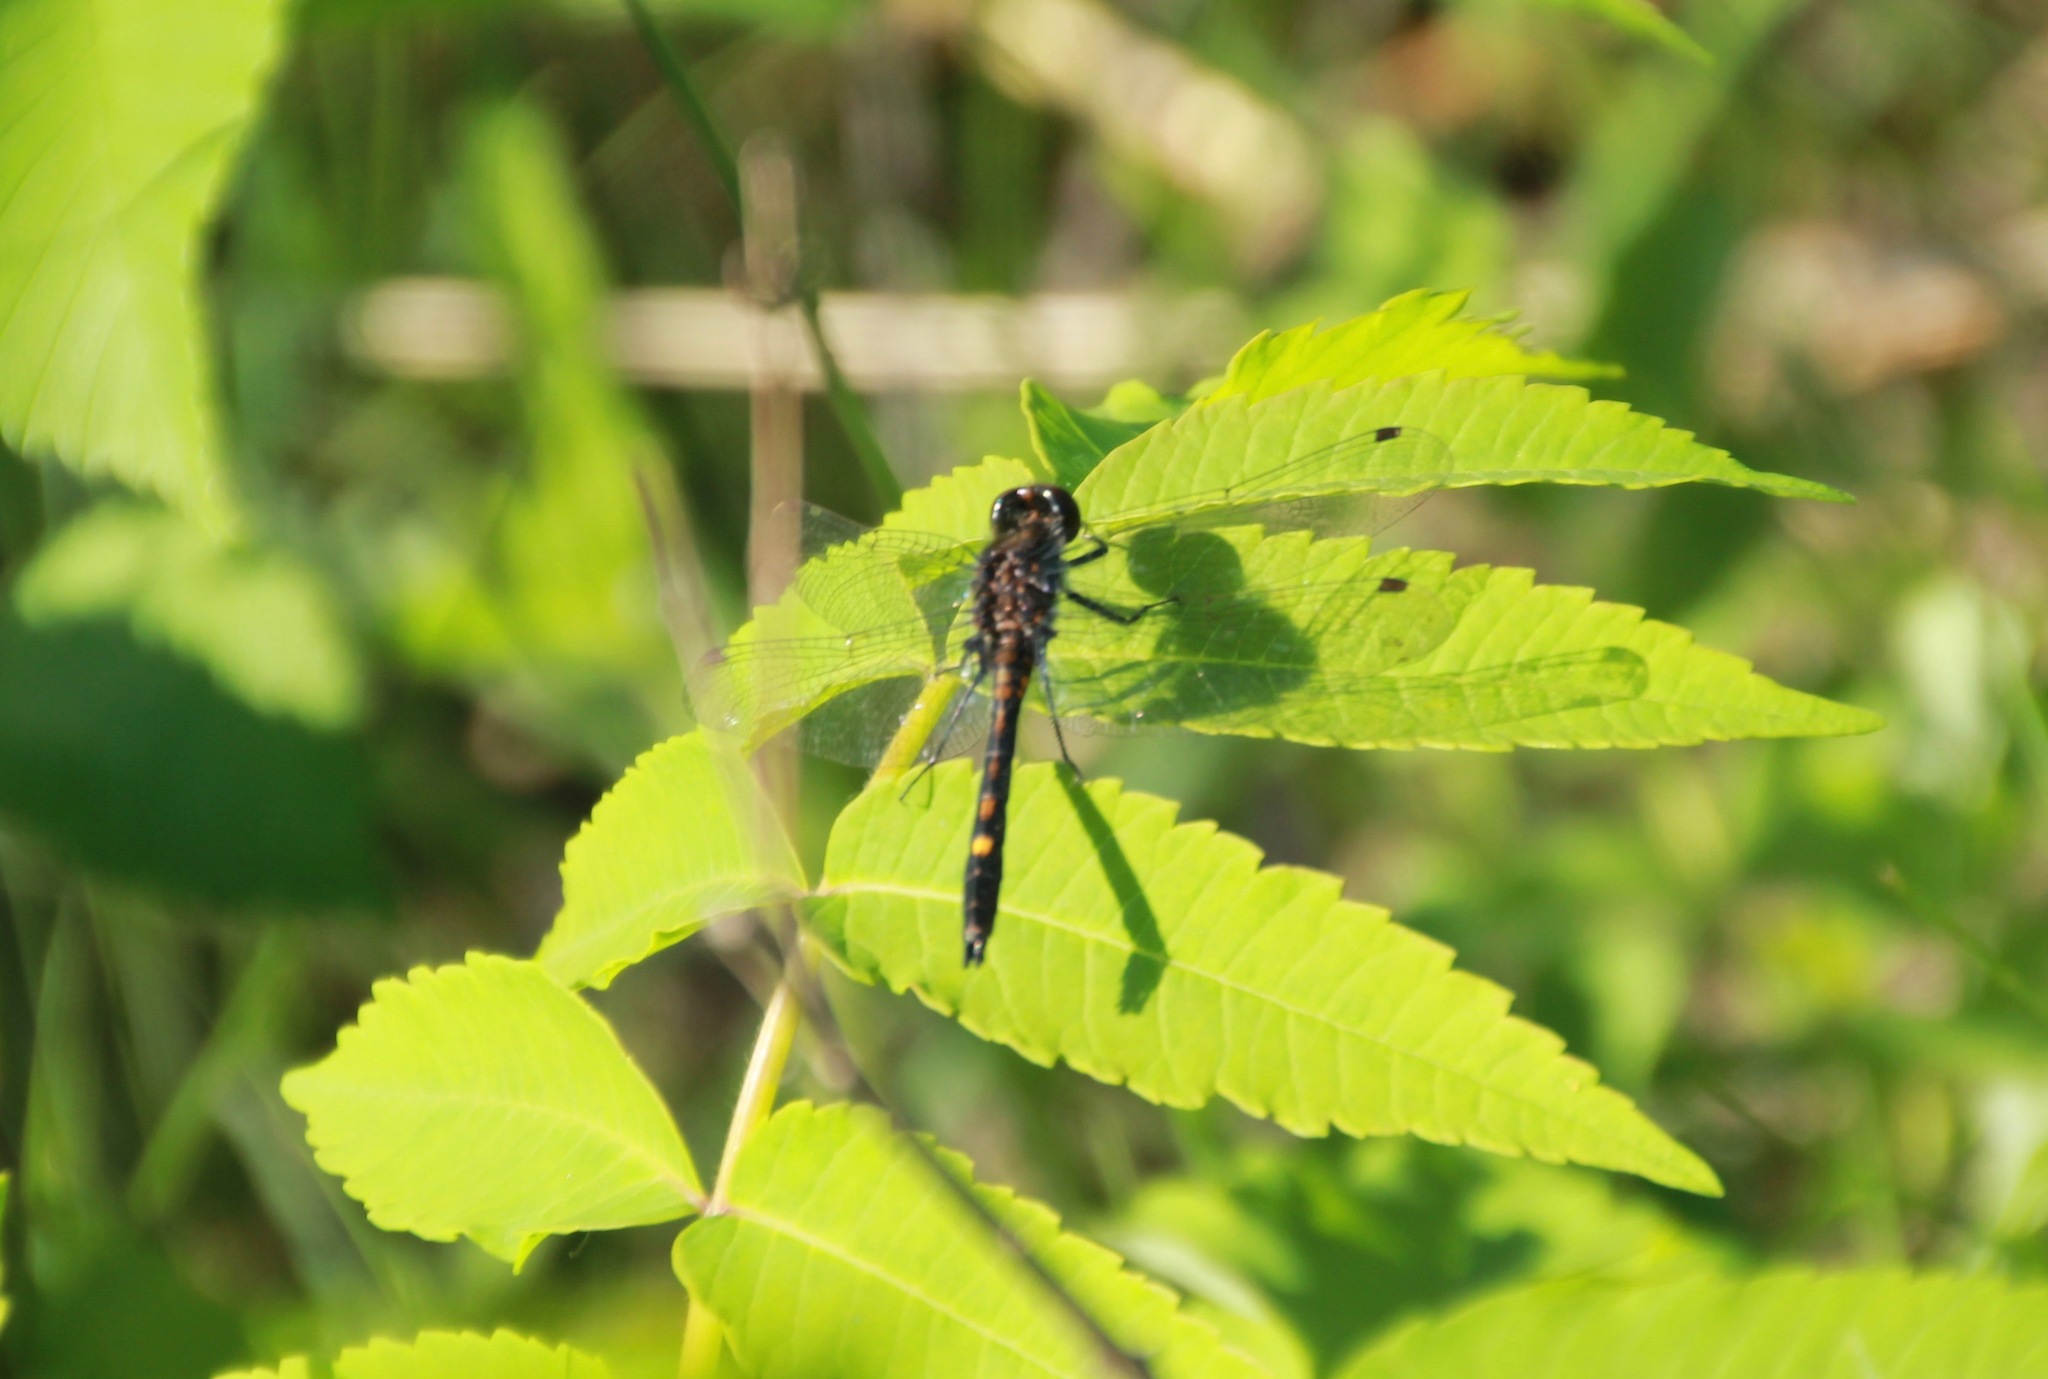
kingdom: Animalia
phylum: Arthropoda
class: Insecta
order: Odonata
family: Libellulidae
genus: Leucorrhinia
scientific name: Leucorrhinia intacta
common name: Dot-tailed whiteface
